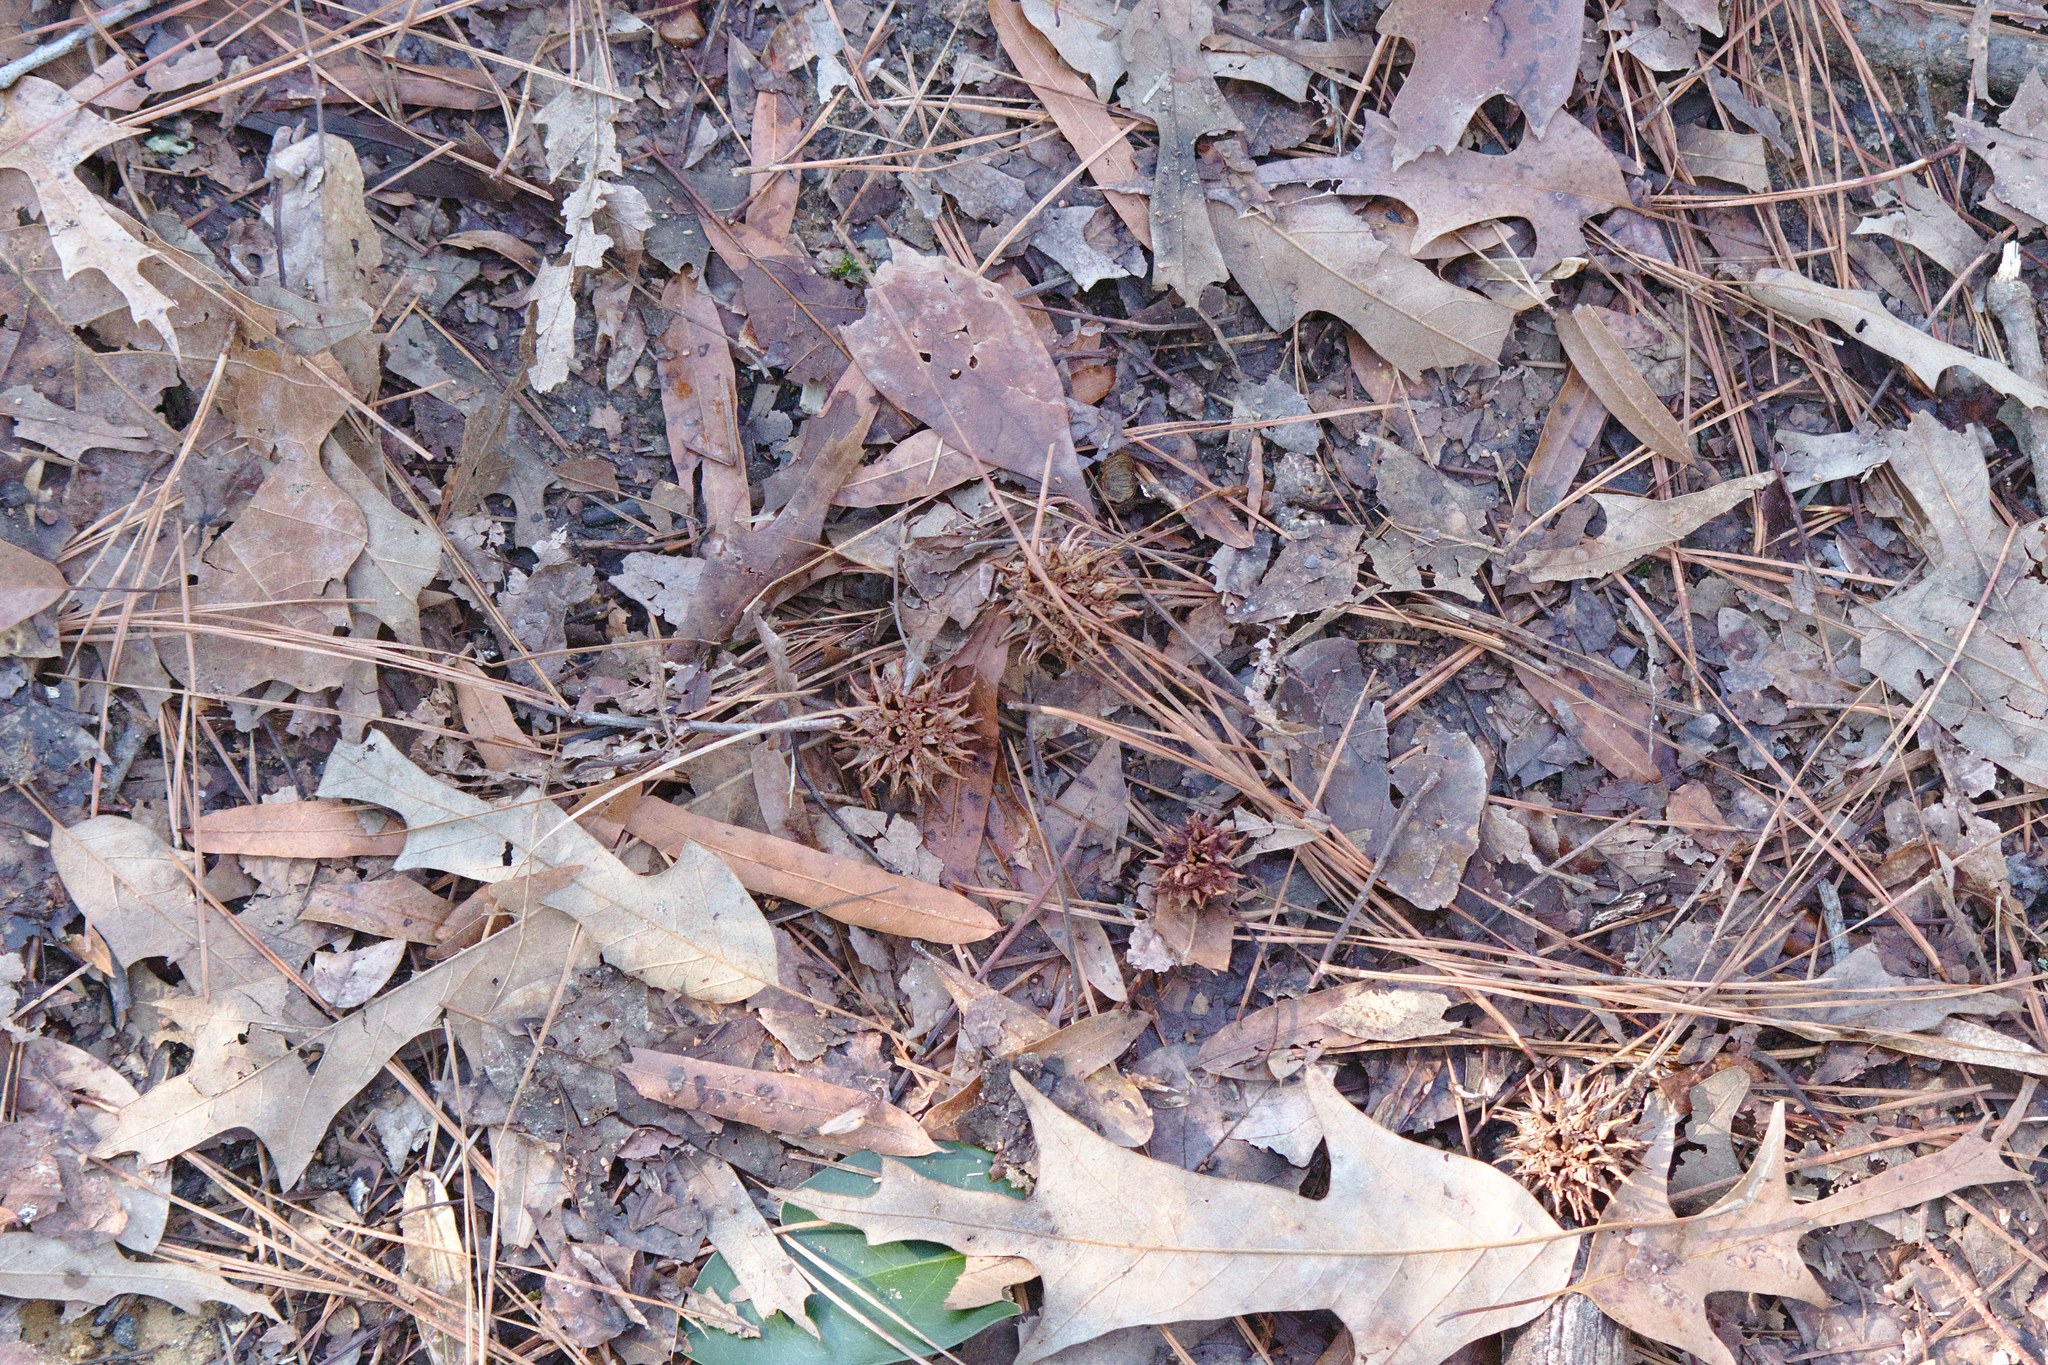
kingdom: Plantae
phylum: Tracheophyta
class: Magnoliopsida
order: Saxifragales
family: Altingiaceae
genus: Liquidambar
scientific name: Liquidambar styraciflua
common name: Sweet gum
